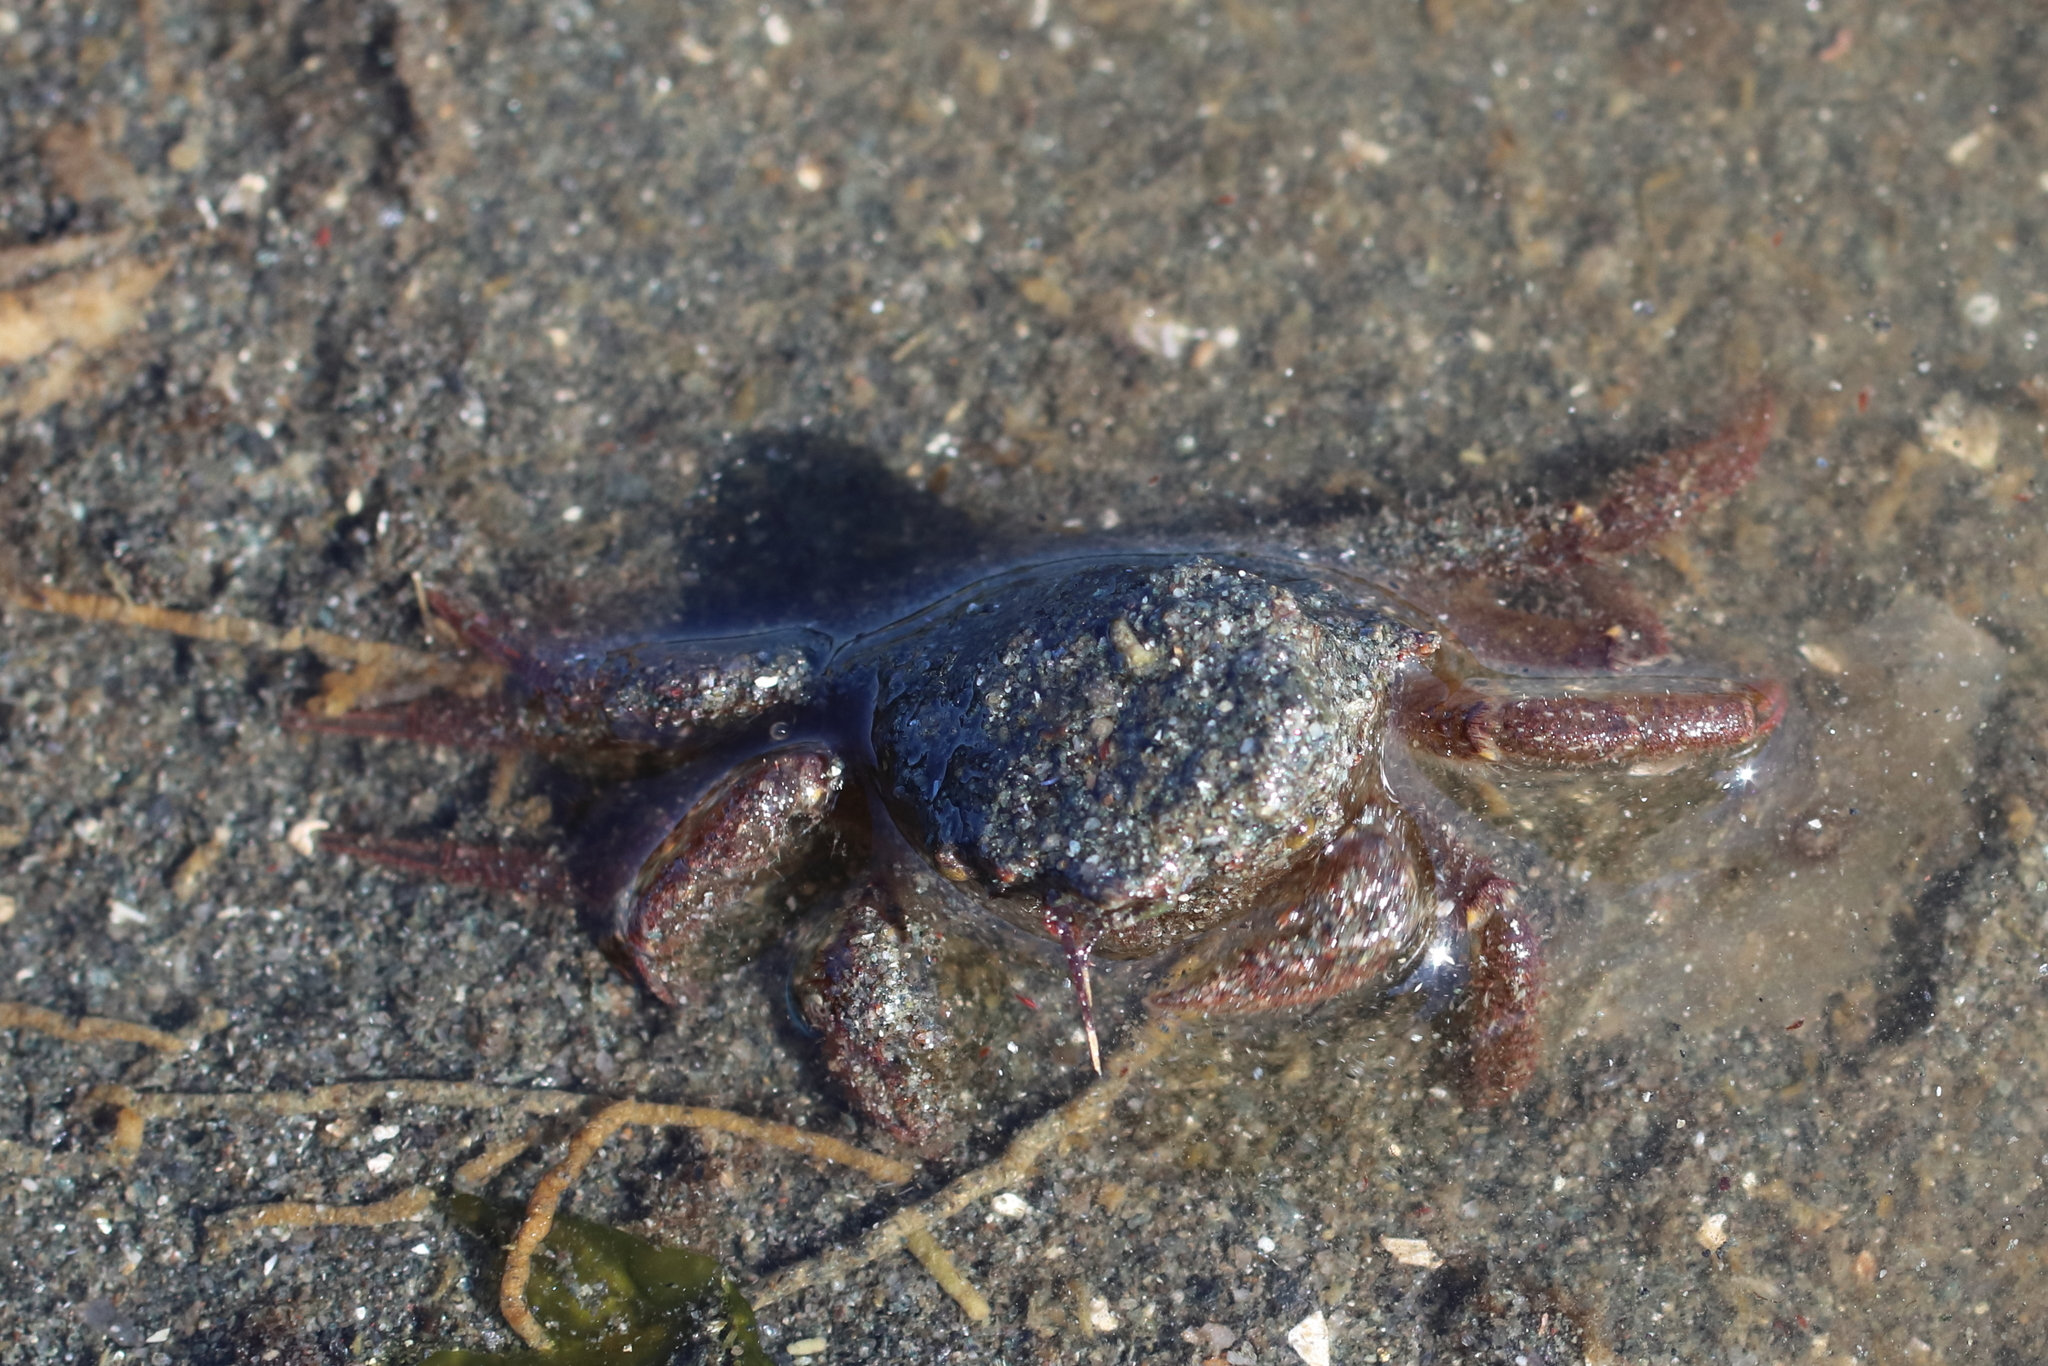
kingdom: Animalia
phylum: Arthropoda
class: Malacostraca
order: Decapoda
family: Cheiragonidae
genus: Telmessus
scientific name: Telmessus cheiragonus
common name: Helmet crab
